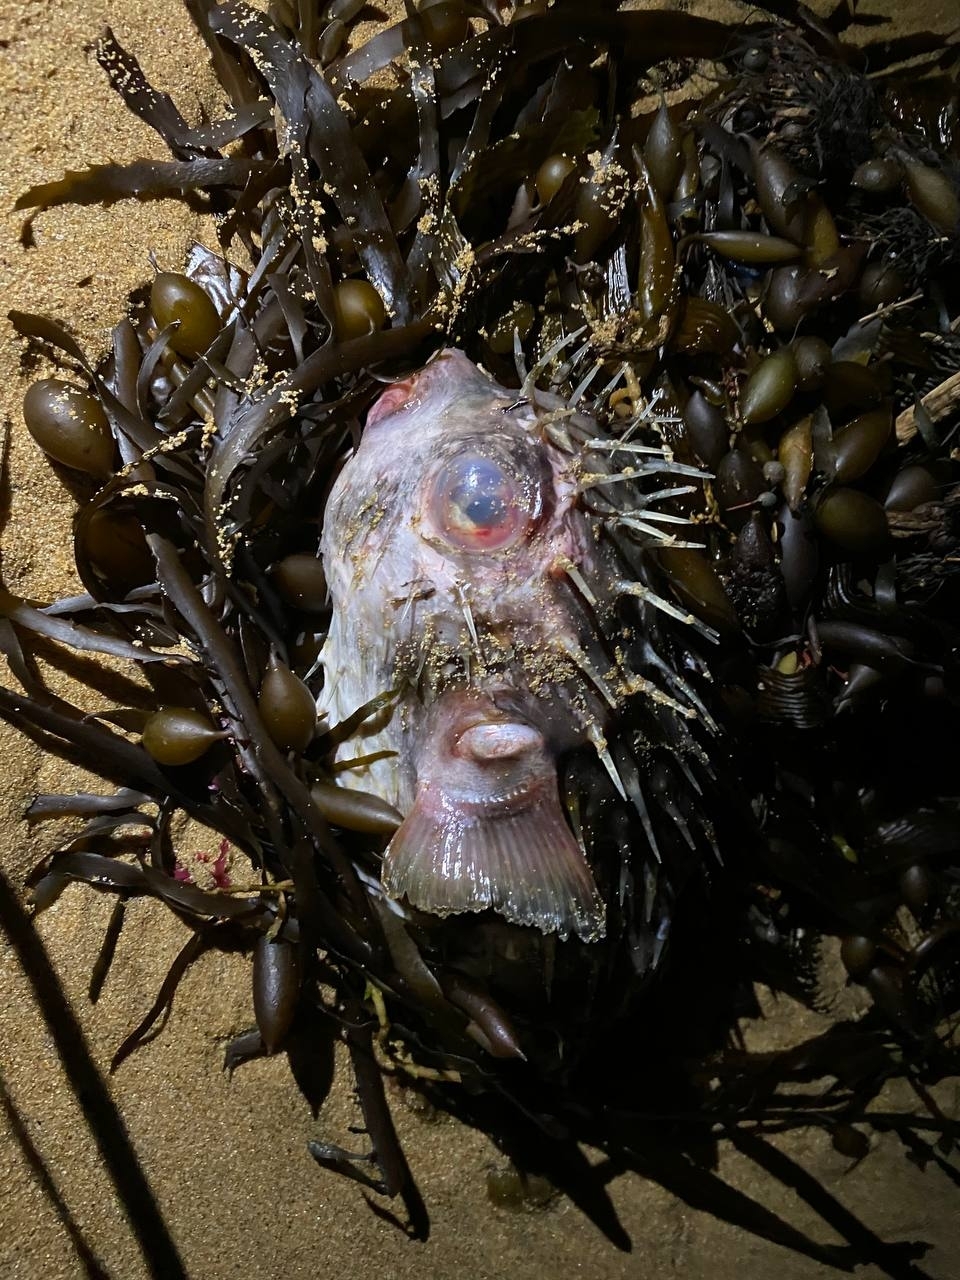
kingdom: Animalia
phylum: Chordata
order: Tetraodontiformes
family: Diodontidae
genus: Diodon
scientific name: Diodon nicthemerus
